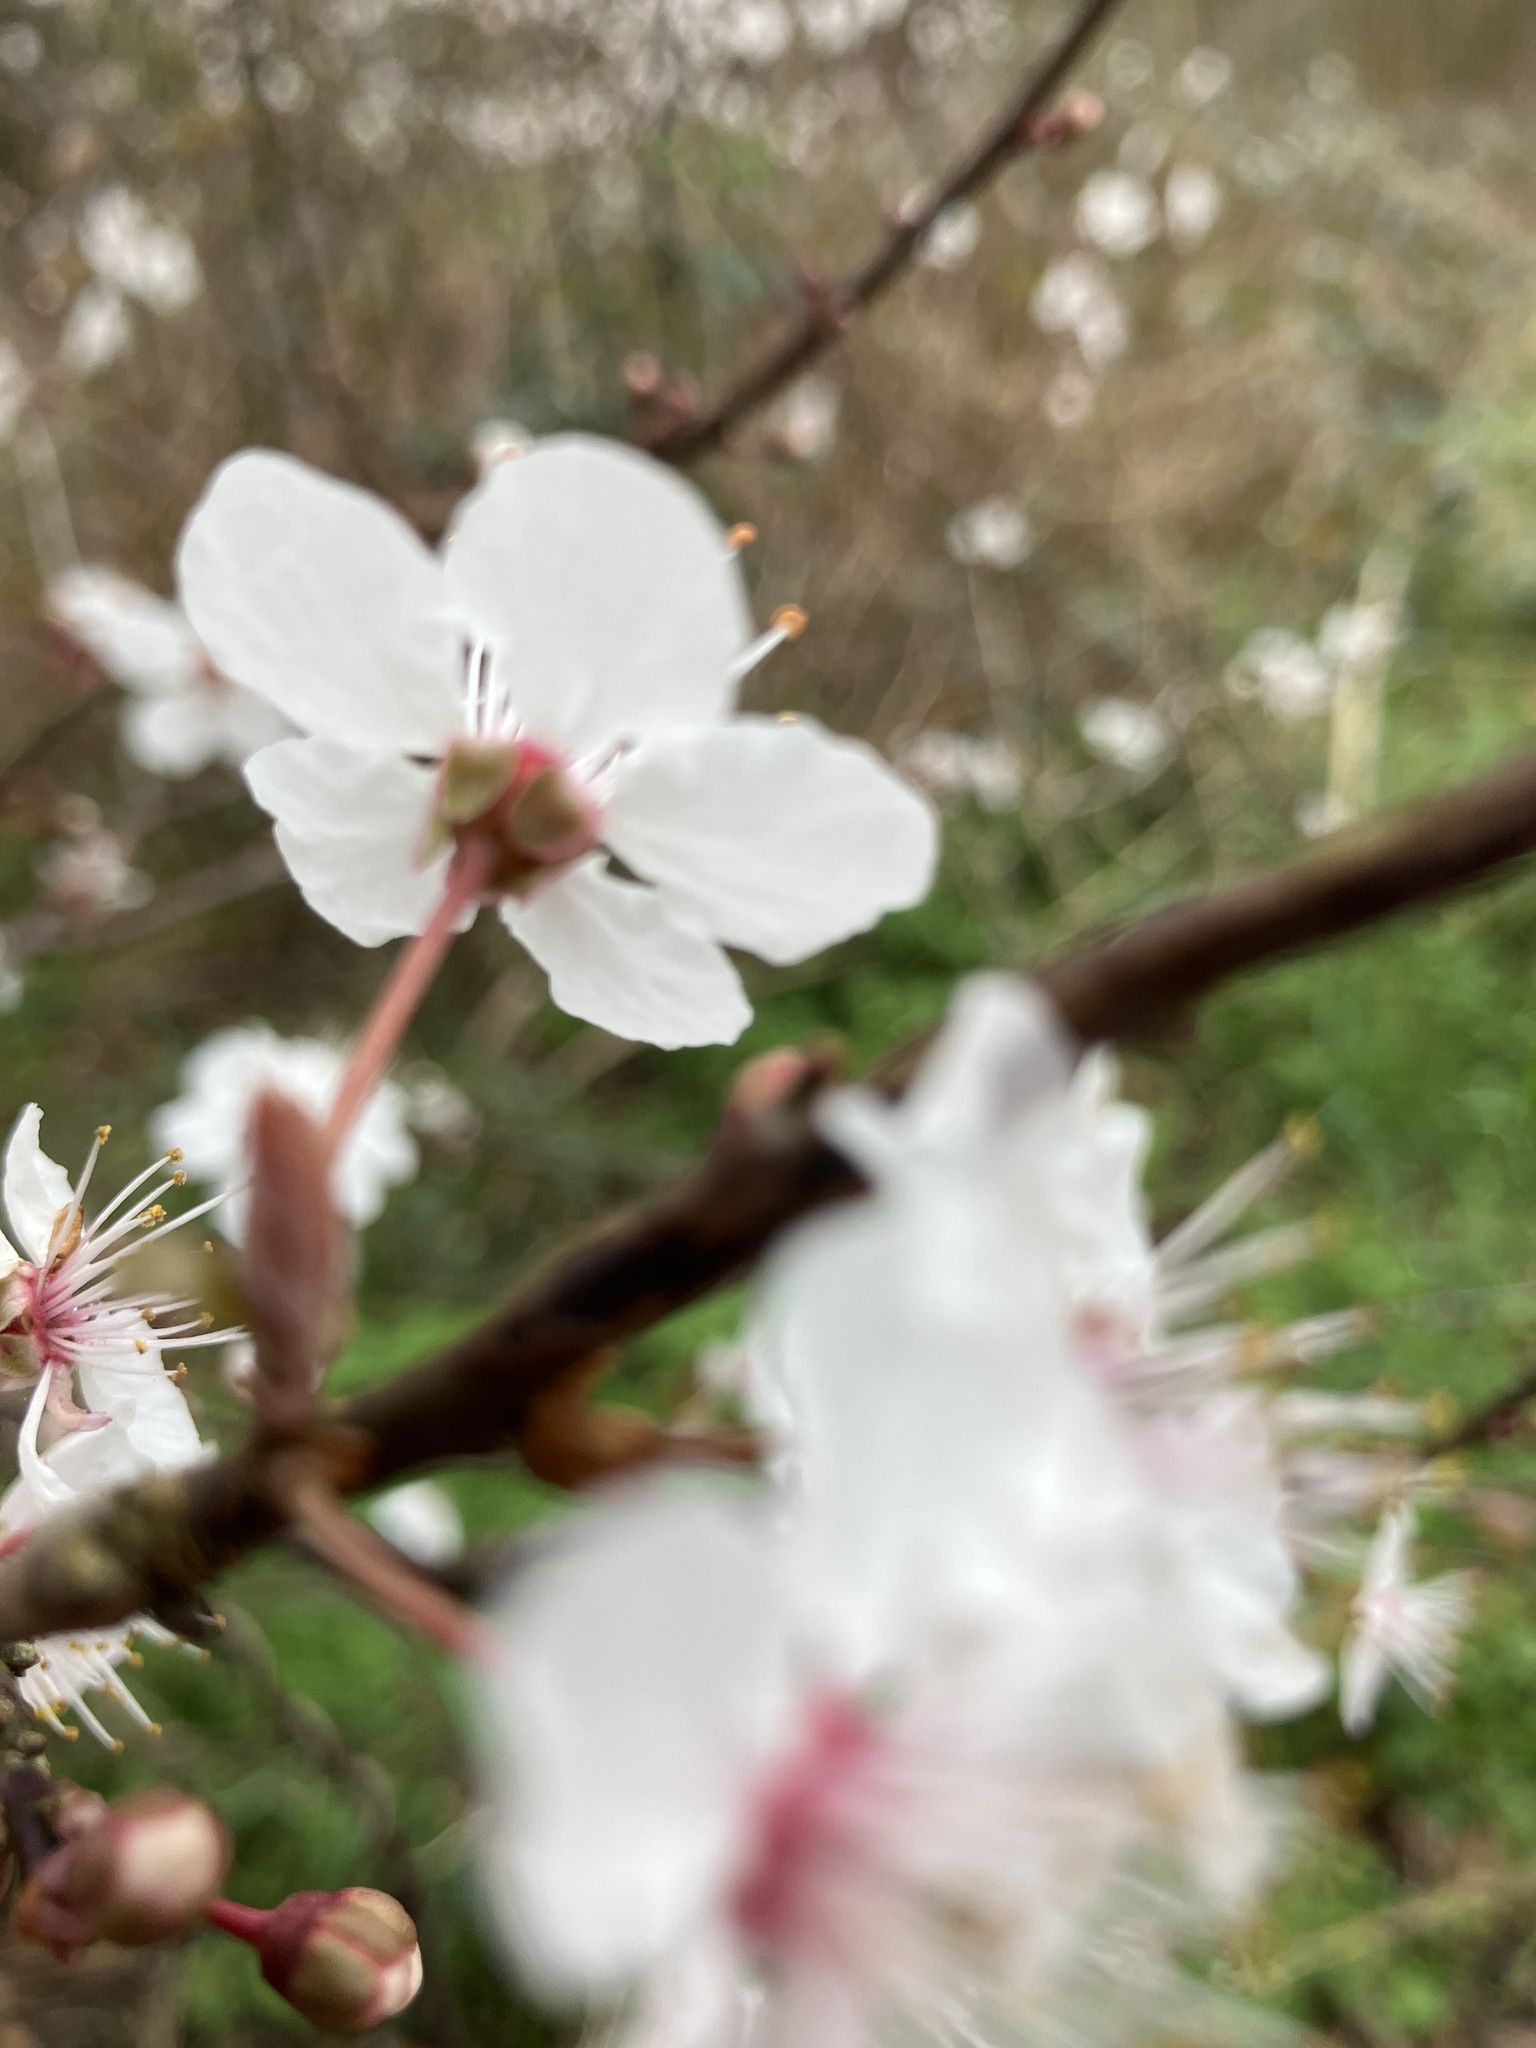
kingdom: Plantae
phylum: Tracheophyta
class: Magnoliopsida
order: Rosales
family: Rosaceae
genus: Prunus
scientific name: Prunus cerasifera
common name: Cherry plum
